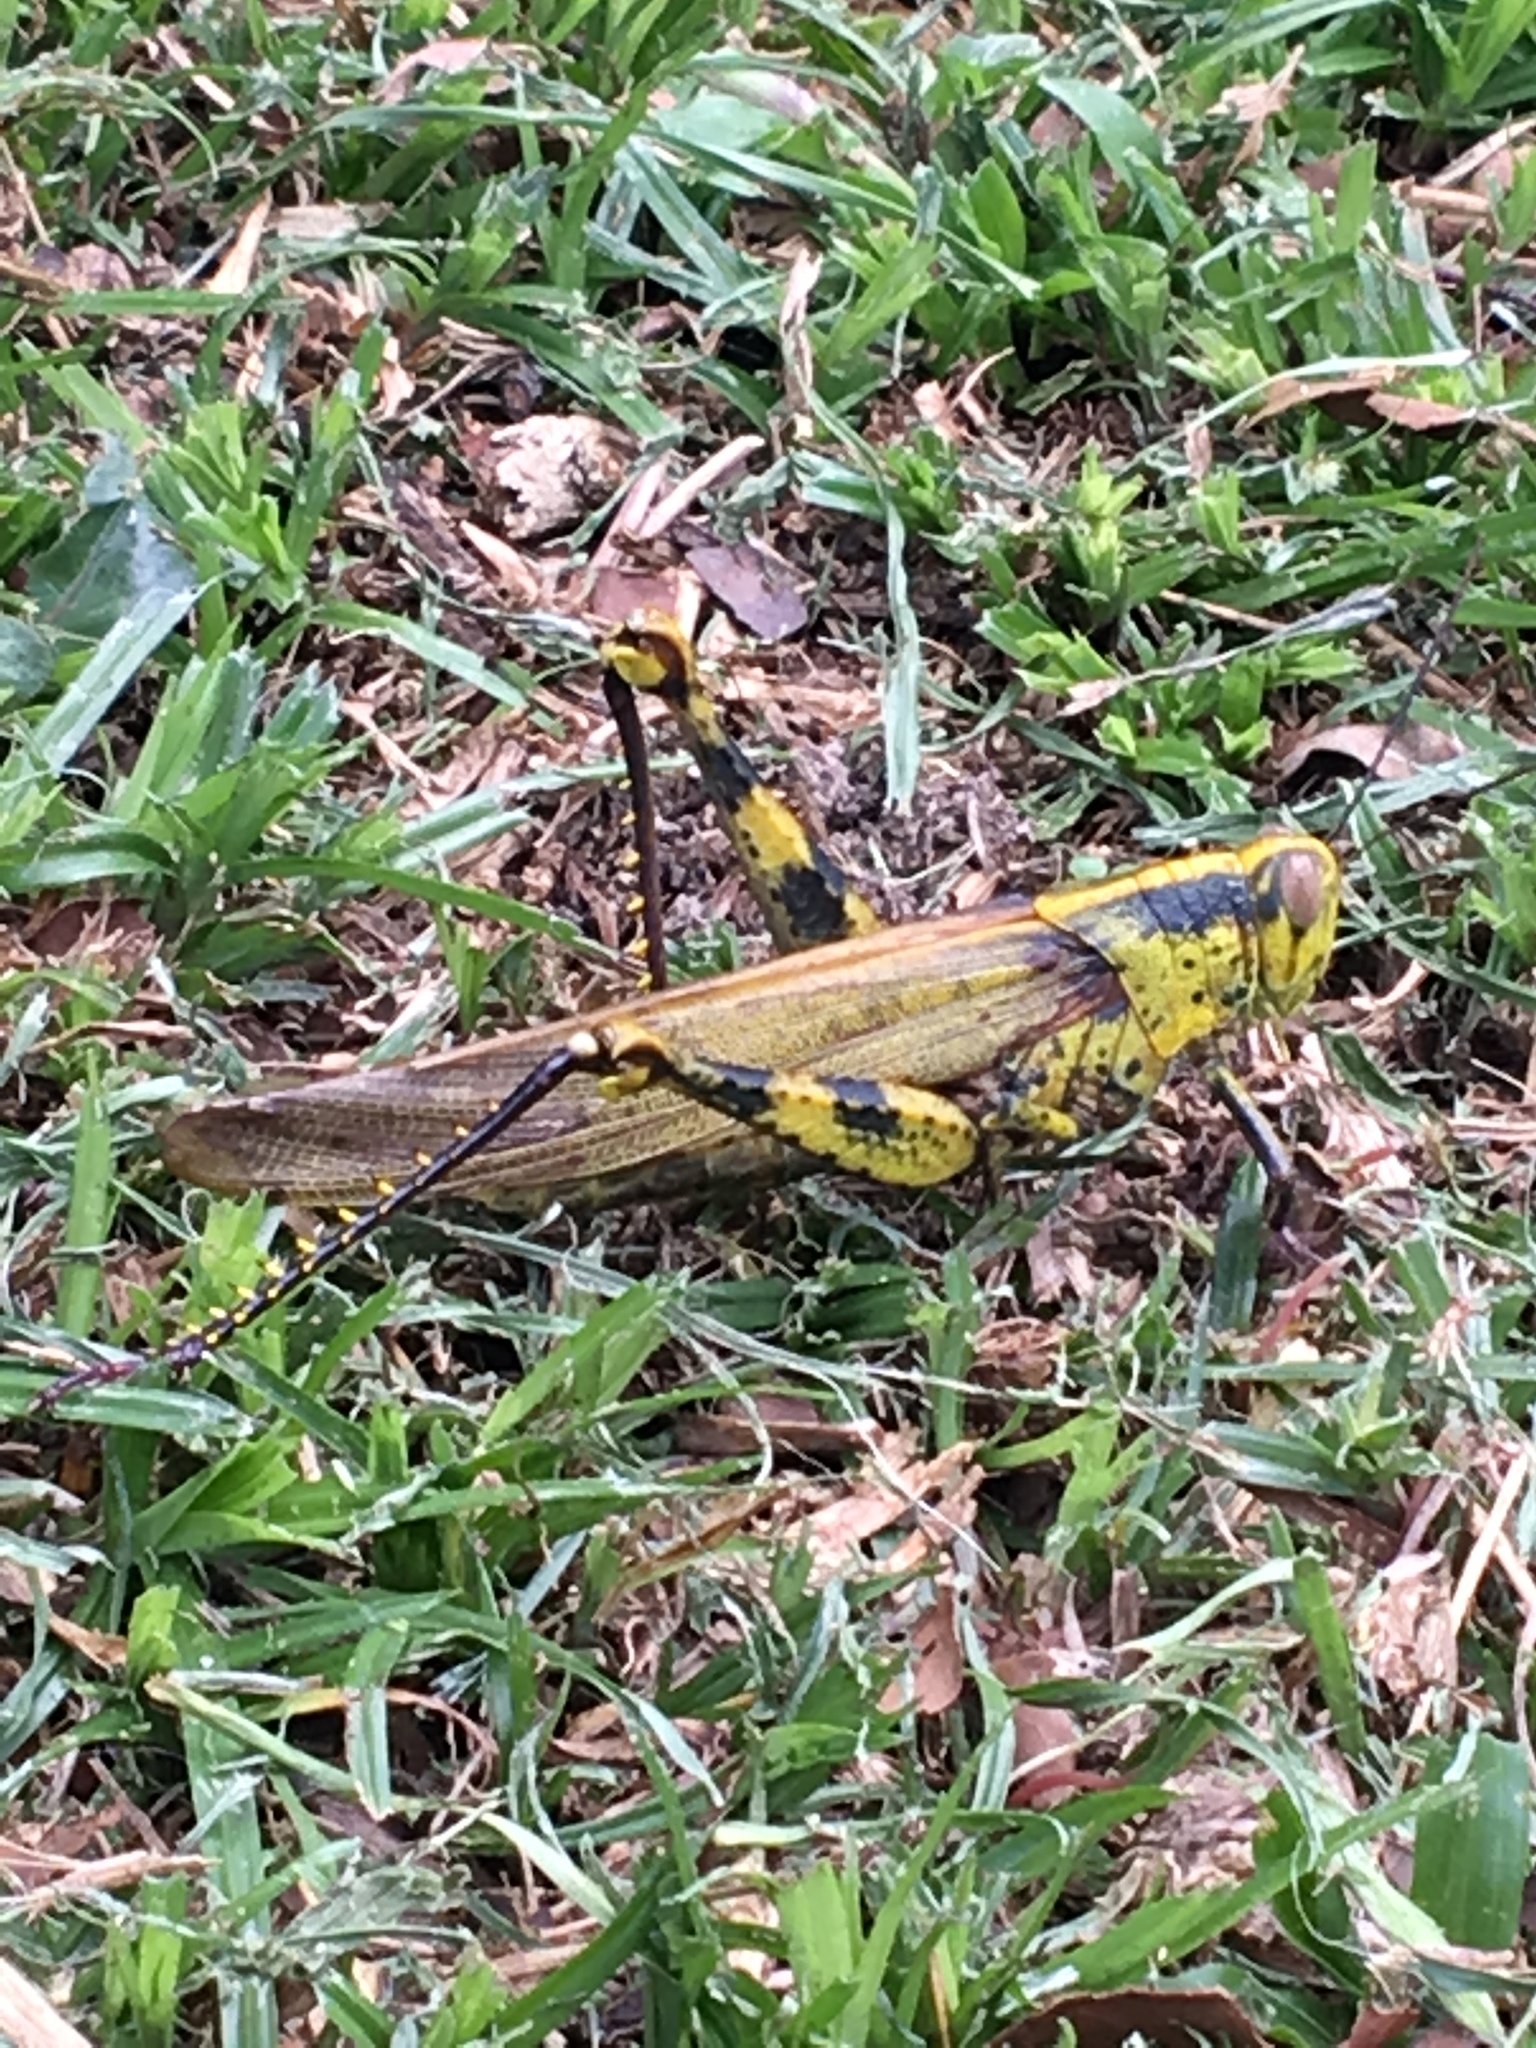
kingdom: Animalia
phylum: Arthropoda
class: Insecta
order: Orthoptera
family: Acrididae
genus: Valanga
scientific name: Valanga nigricornis
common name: Javanese bird grasshopper
